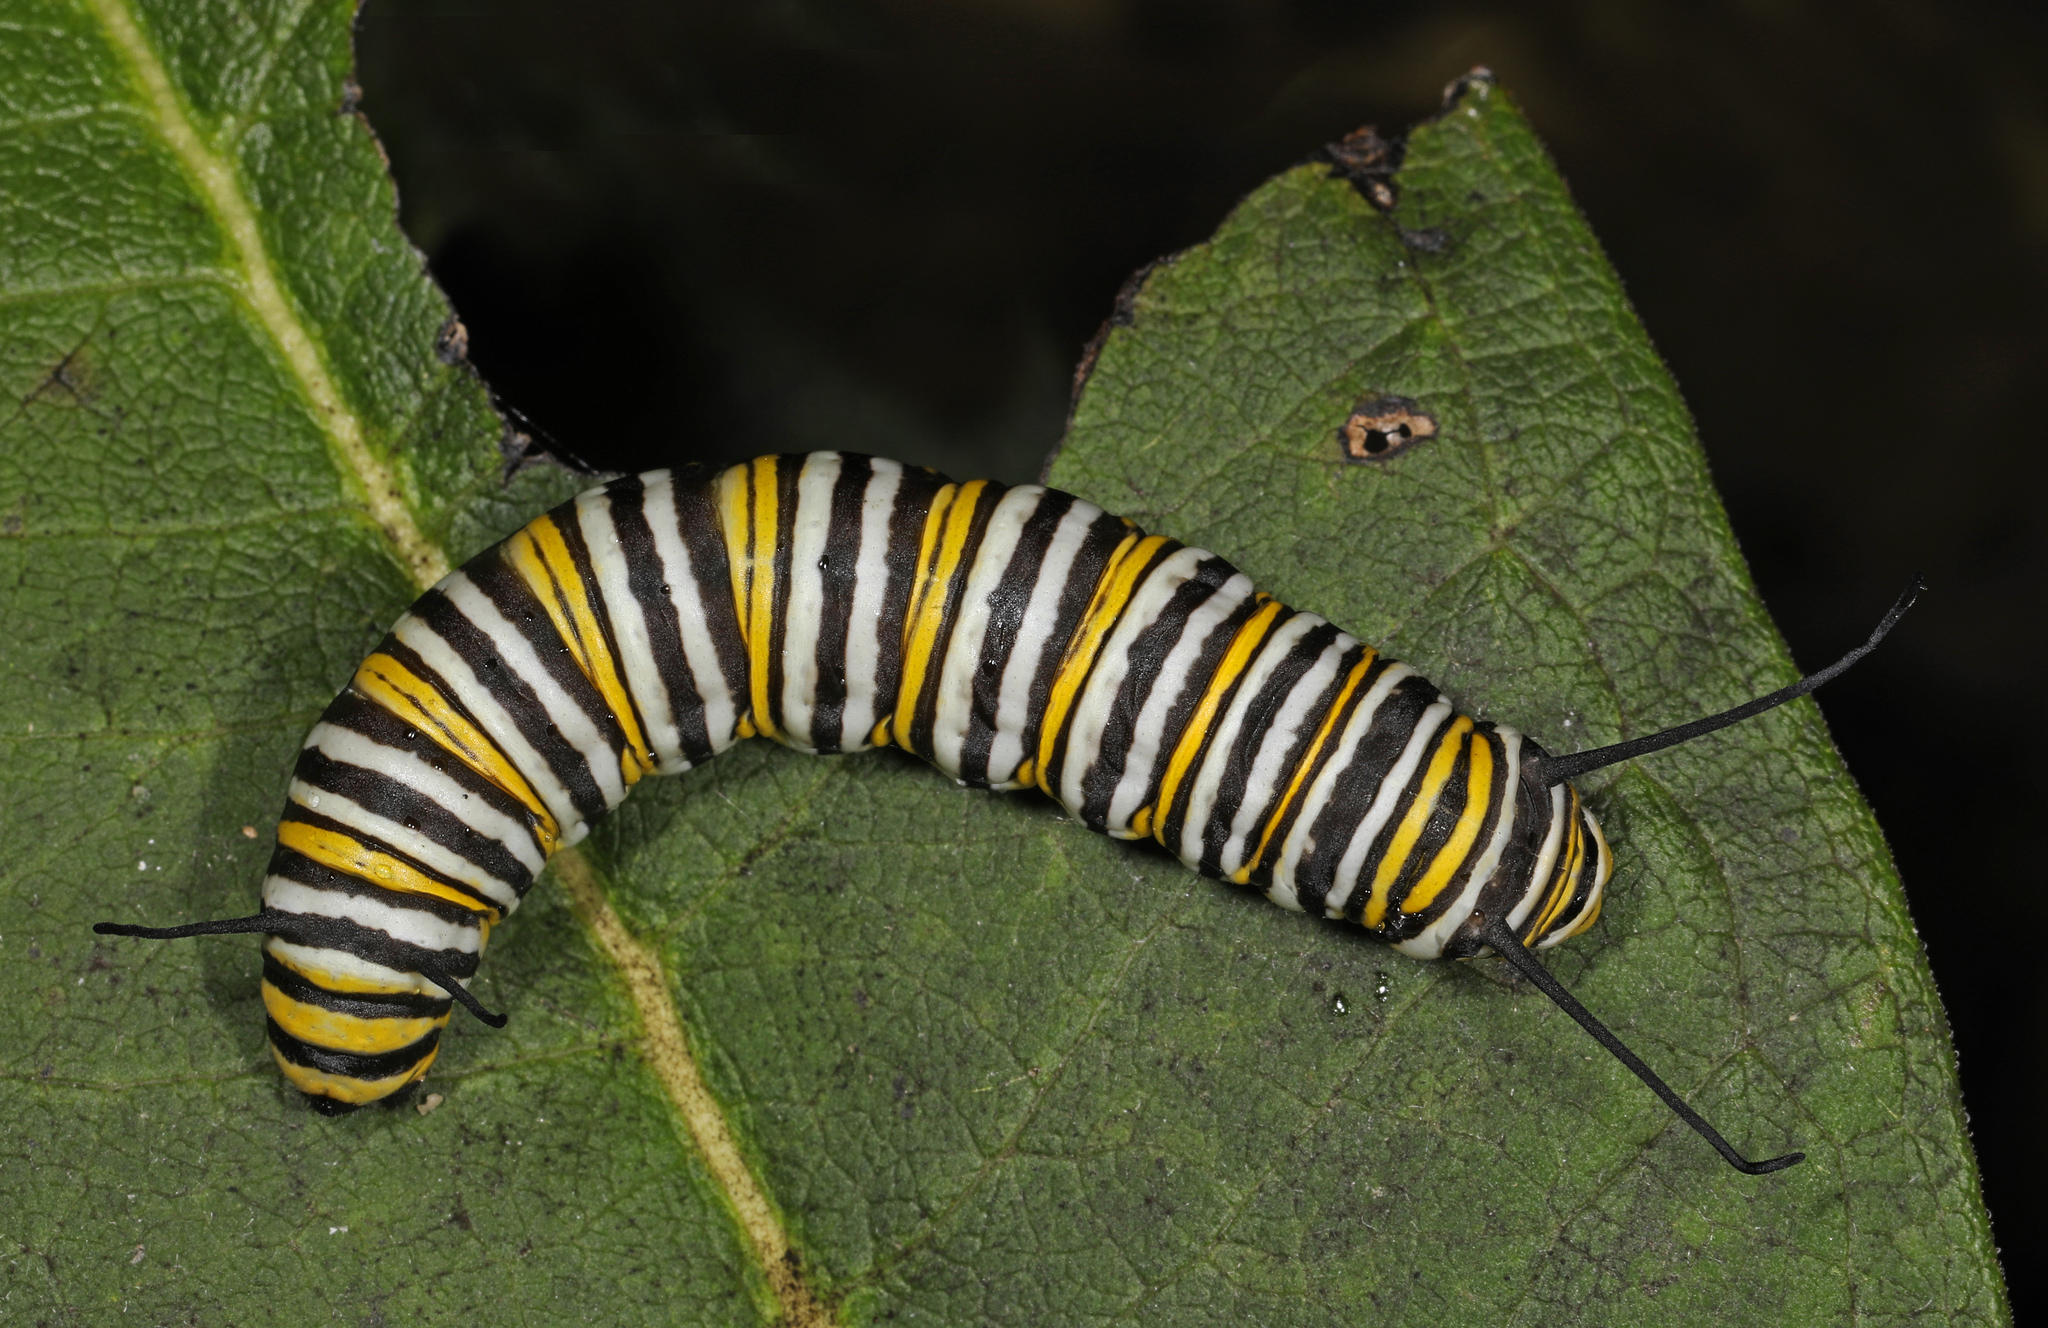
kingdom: Animalia
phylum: Arthropoda
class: Insecta
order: Lepidoptera
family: Nymphalidae
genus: Danaus
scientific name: Danaus plexippus
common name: Monarch
